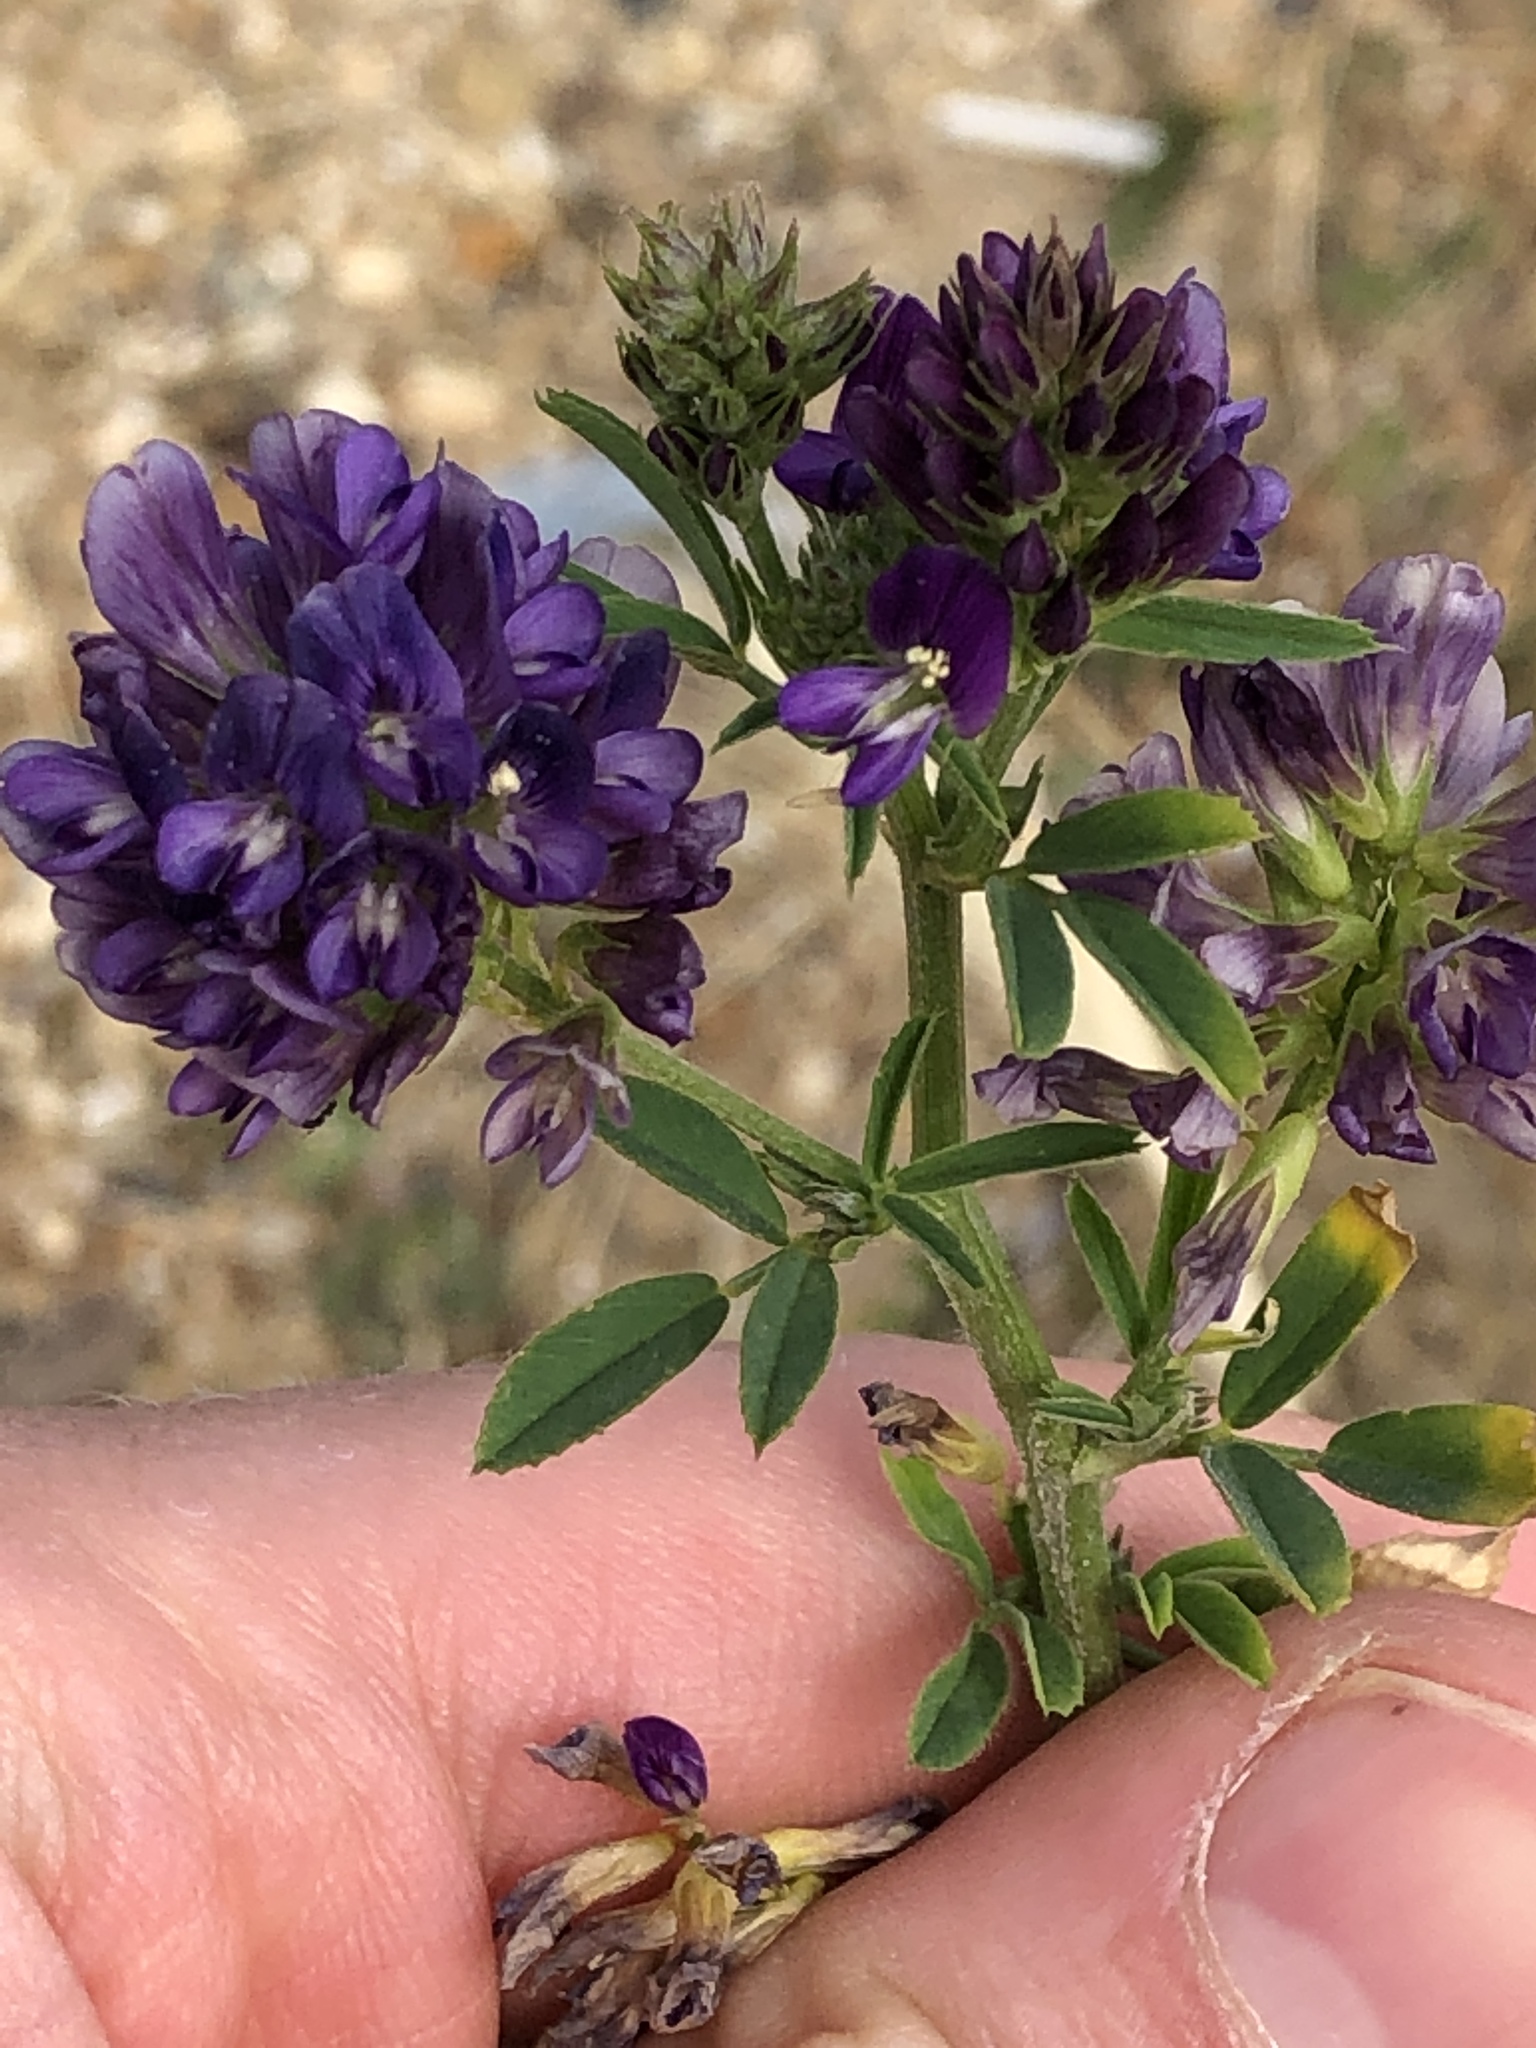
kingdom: Plantae
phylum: Tracheophyta
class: Magnoliopsida
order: Fabales
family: Fabaceae
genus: Medicago
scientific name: Medicago sativa
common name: Alfalfa
